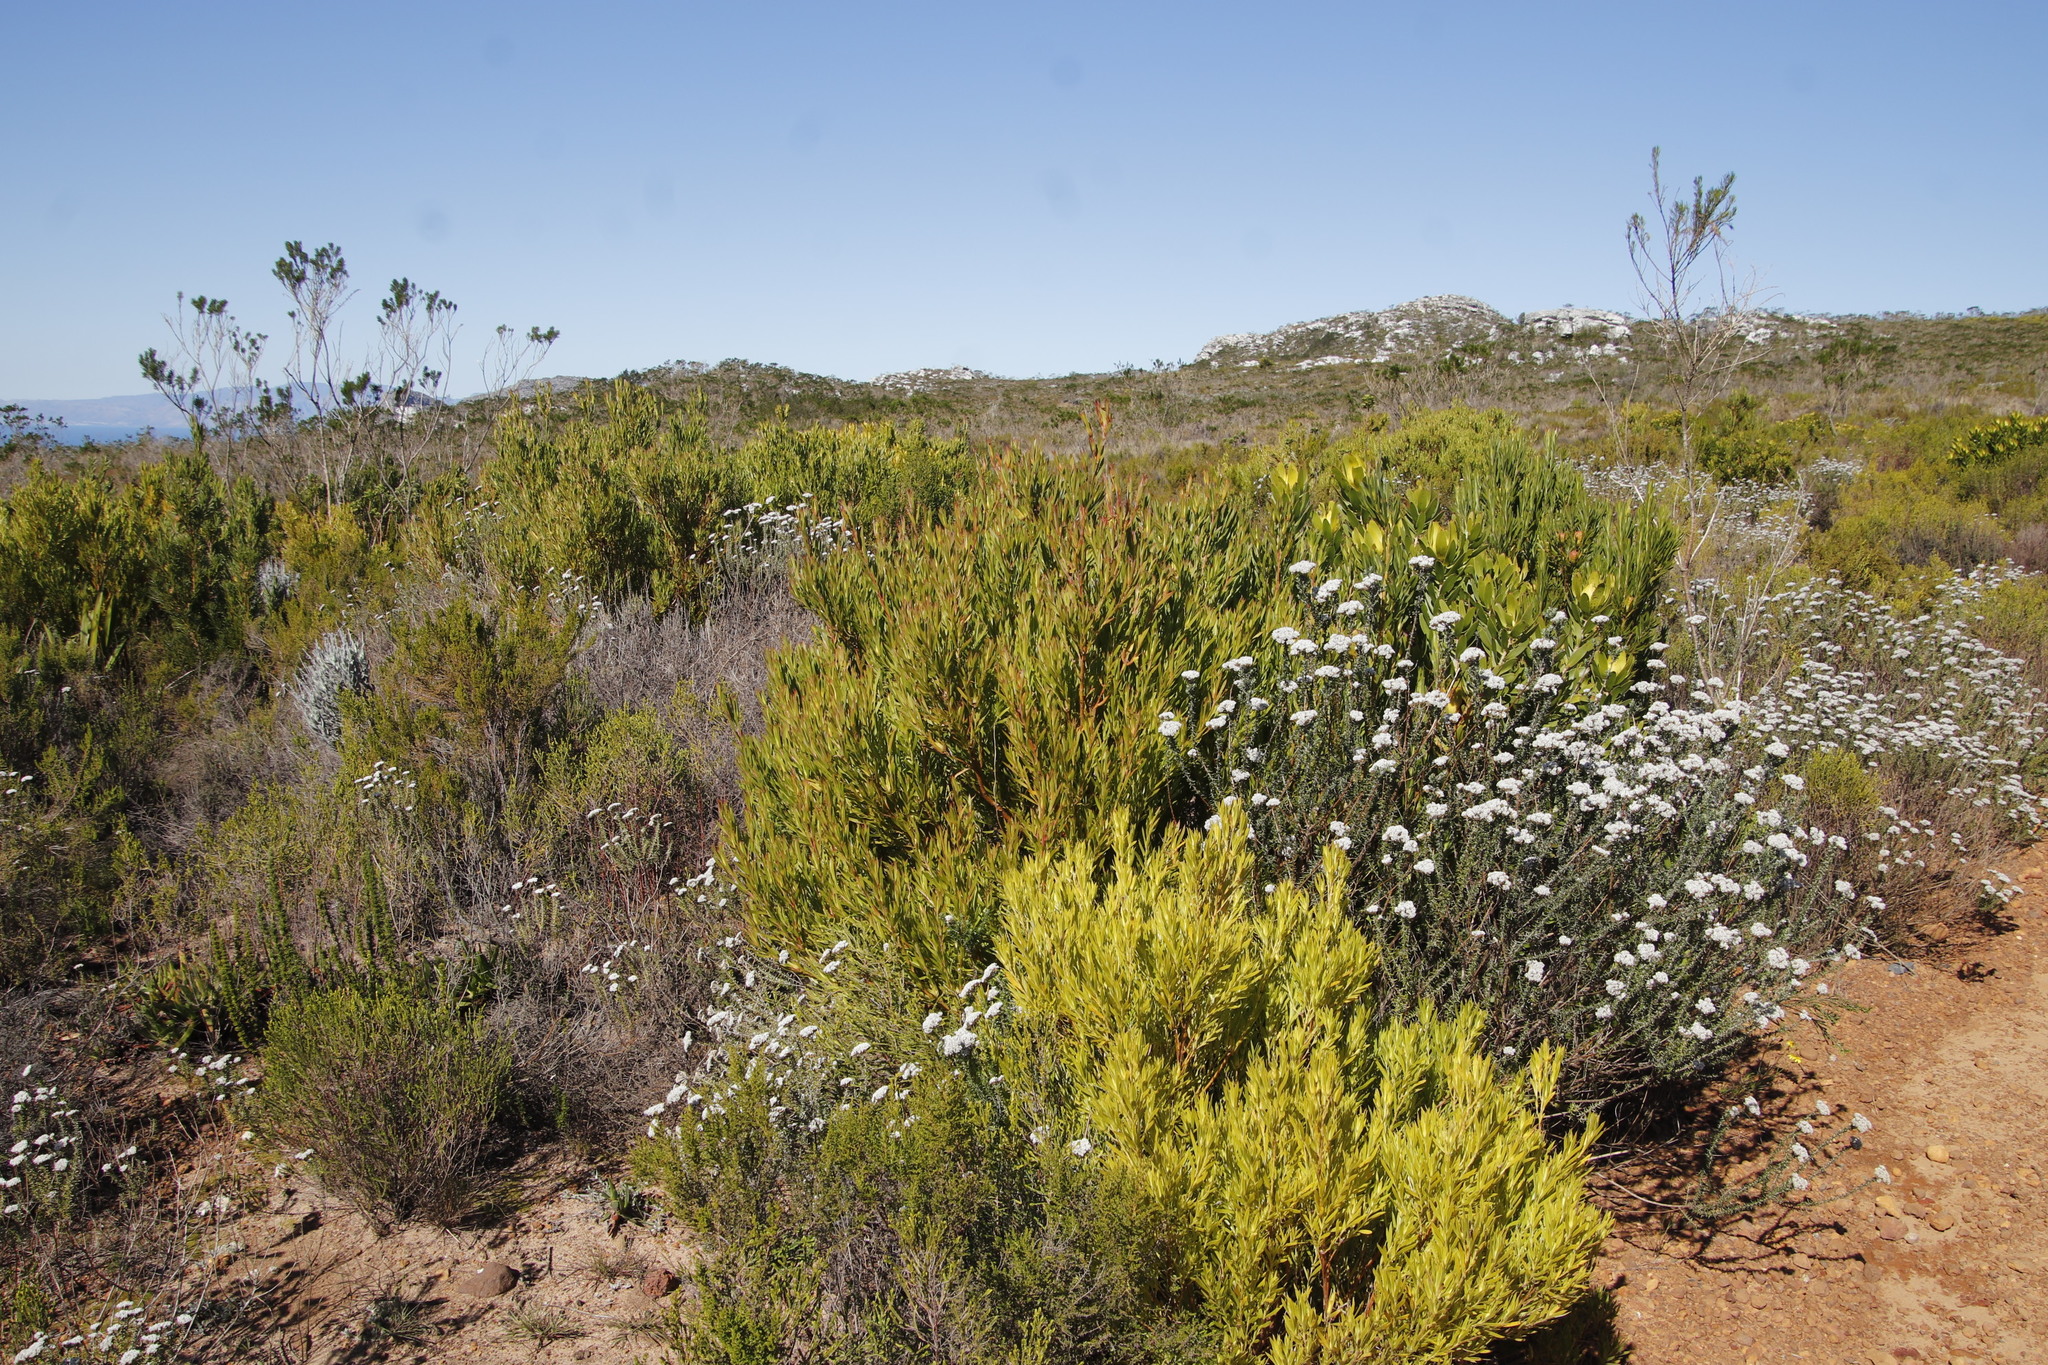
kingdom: Plantae
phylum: Tracheophyta
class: Magnoliopsida
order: Asterales
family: Asteraceae
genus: Metalasia
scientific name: Metalasia densa
